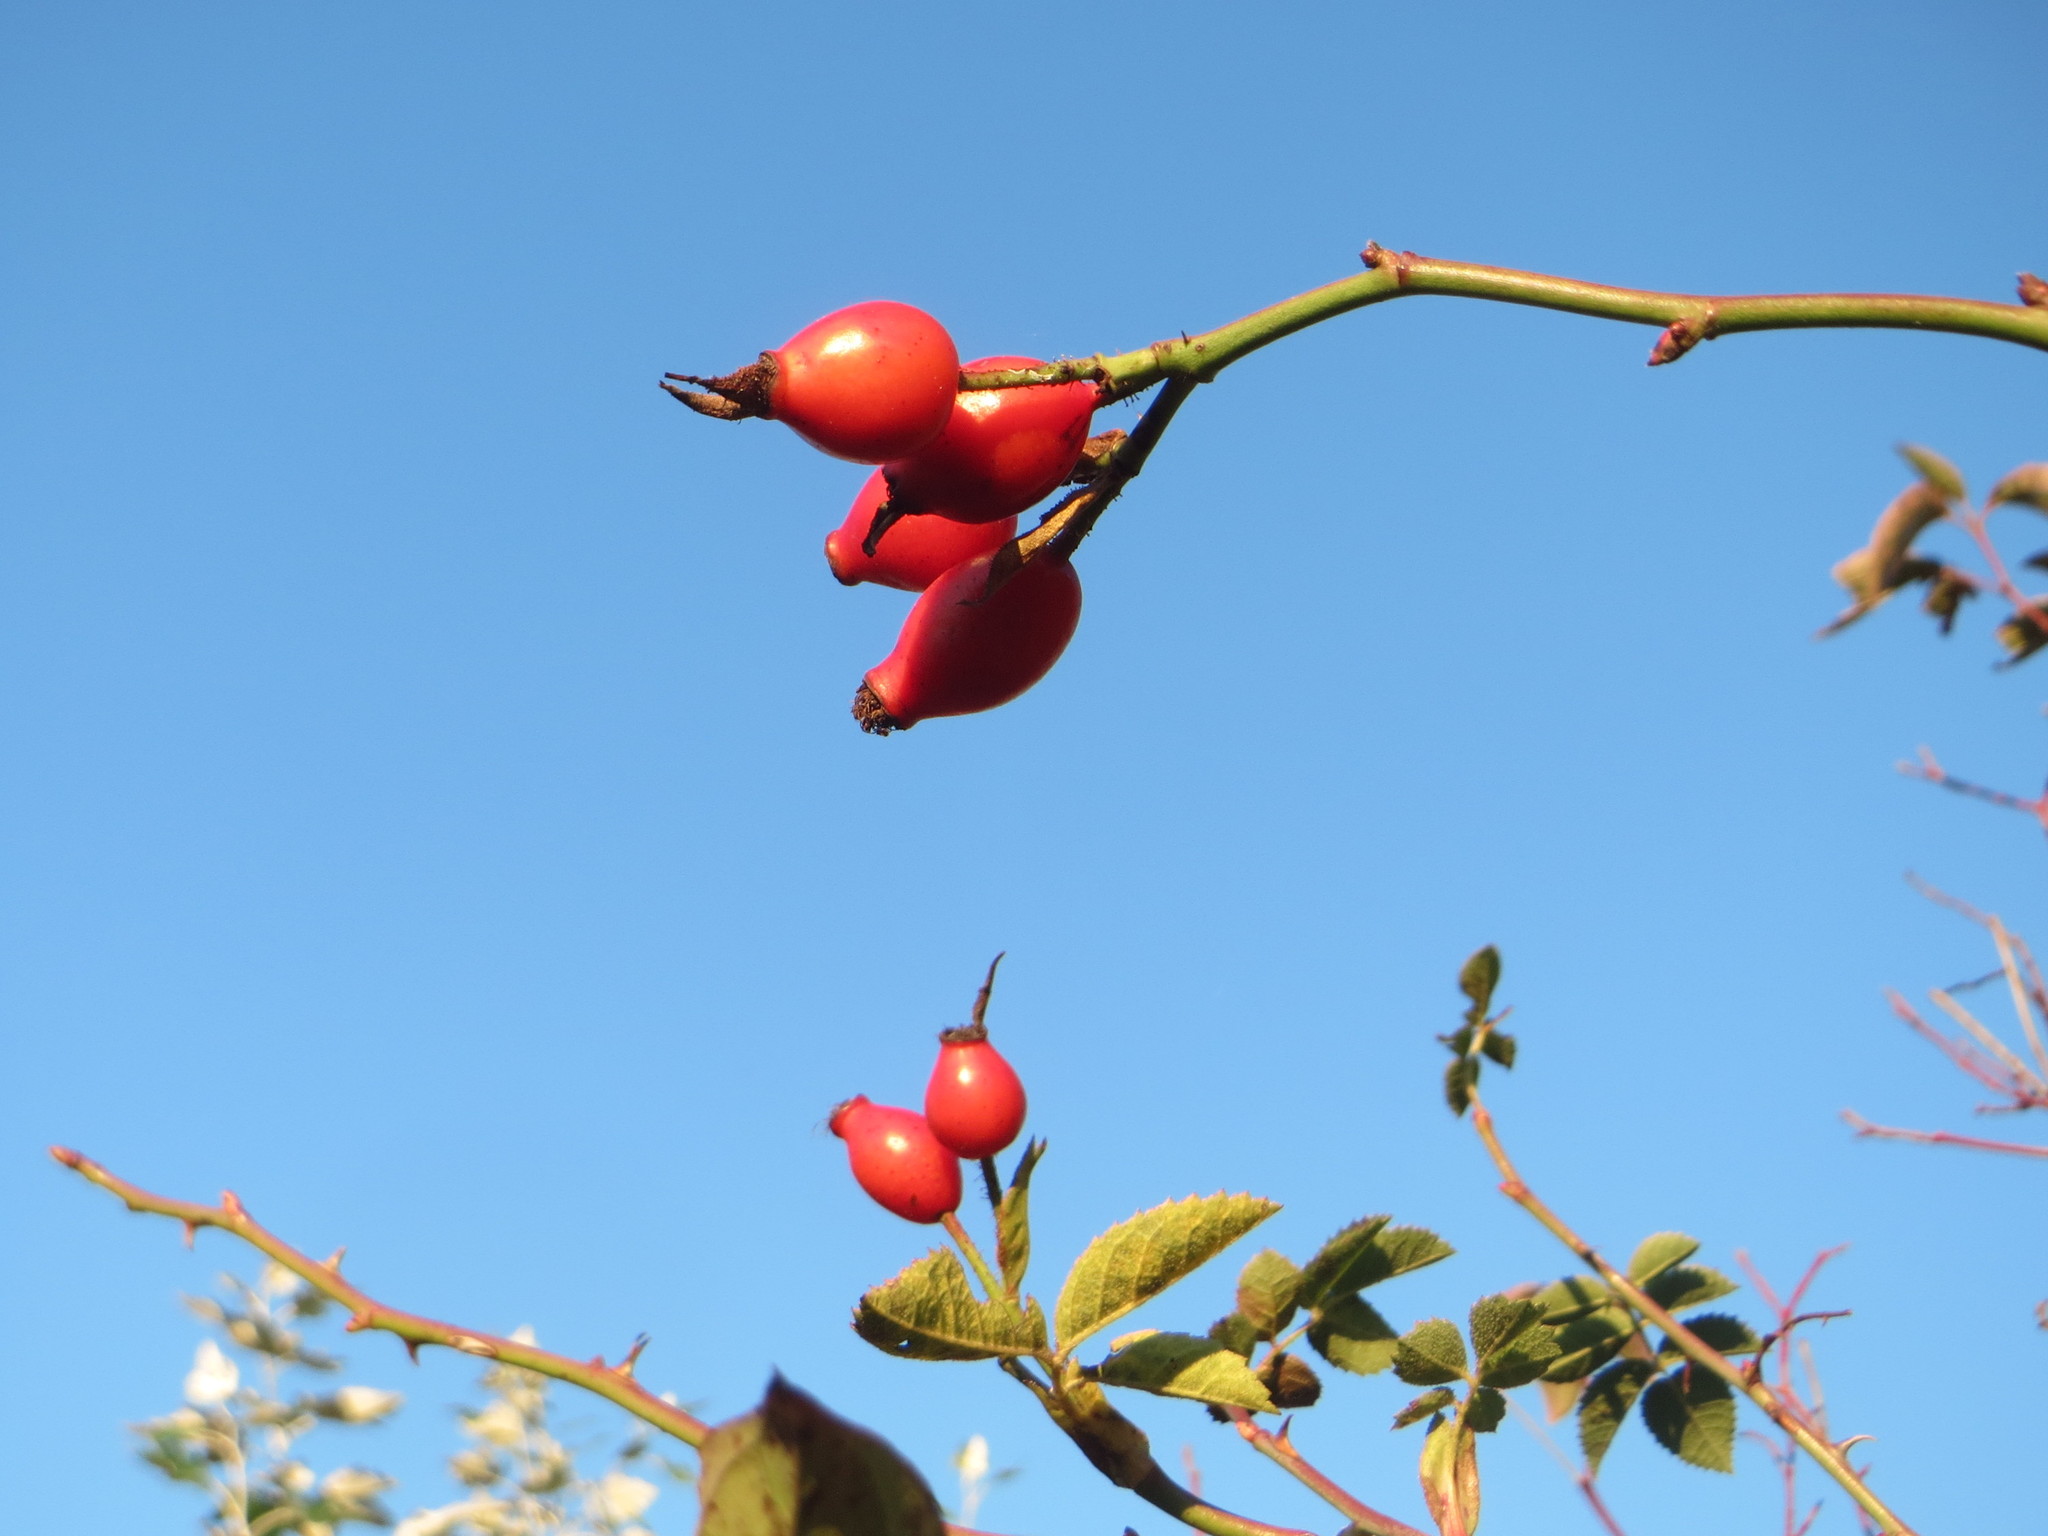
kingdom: Plantae
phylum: Tracheophyta
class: Magnoliopsida
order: Rosales
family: Rosaceae
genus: Rosa
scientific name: Rosa canina
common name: Dog rose
